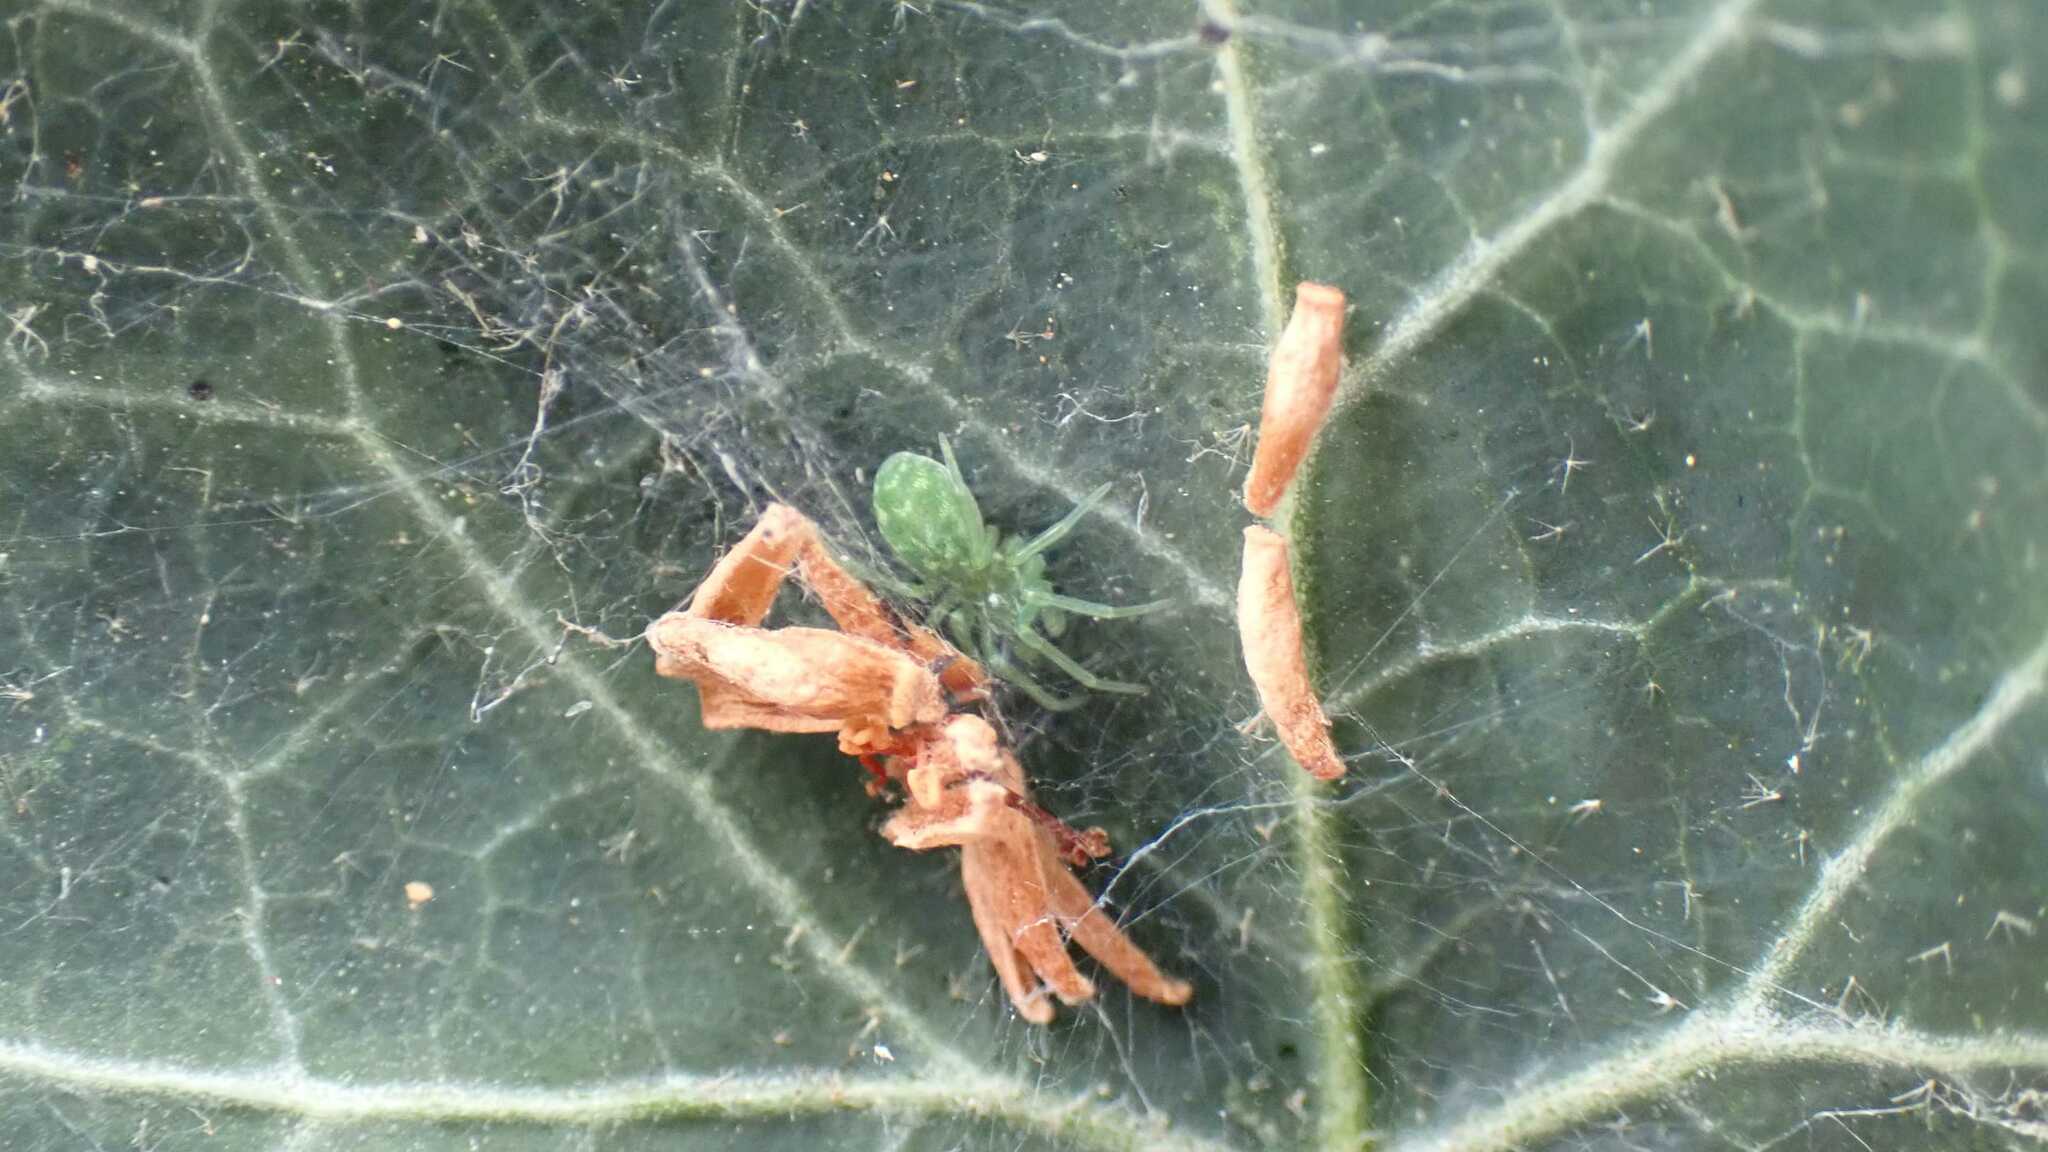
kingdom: Animalia
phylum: Arthropoda
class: Arachnida
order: Araneae
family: Dictynidae
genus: Nigma
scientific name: Nigma walckenaeri
